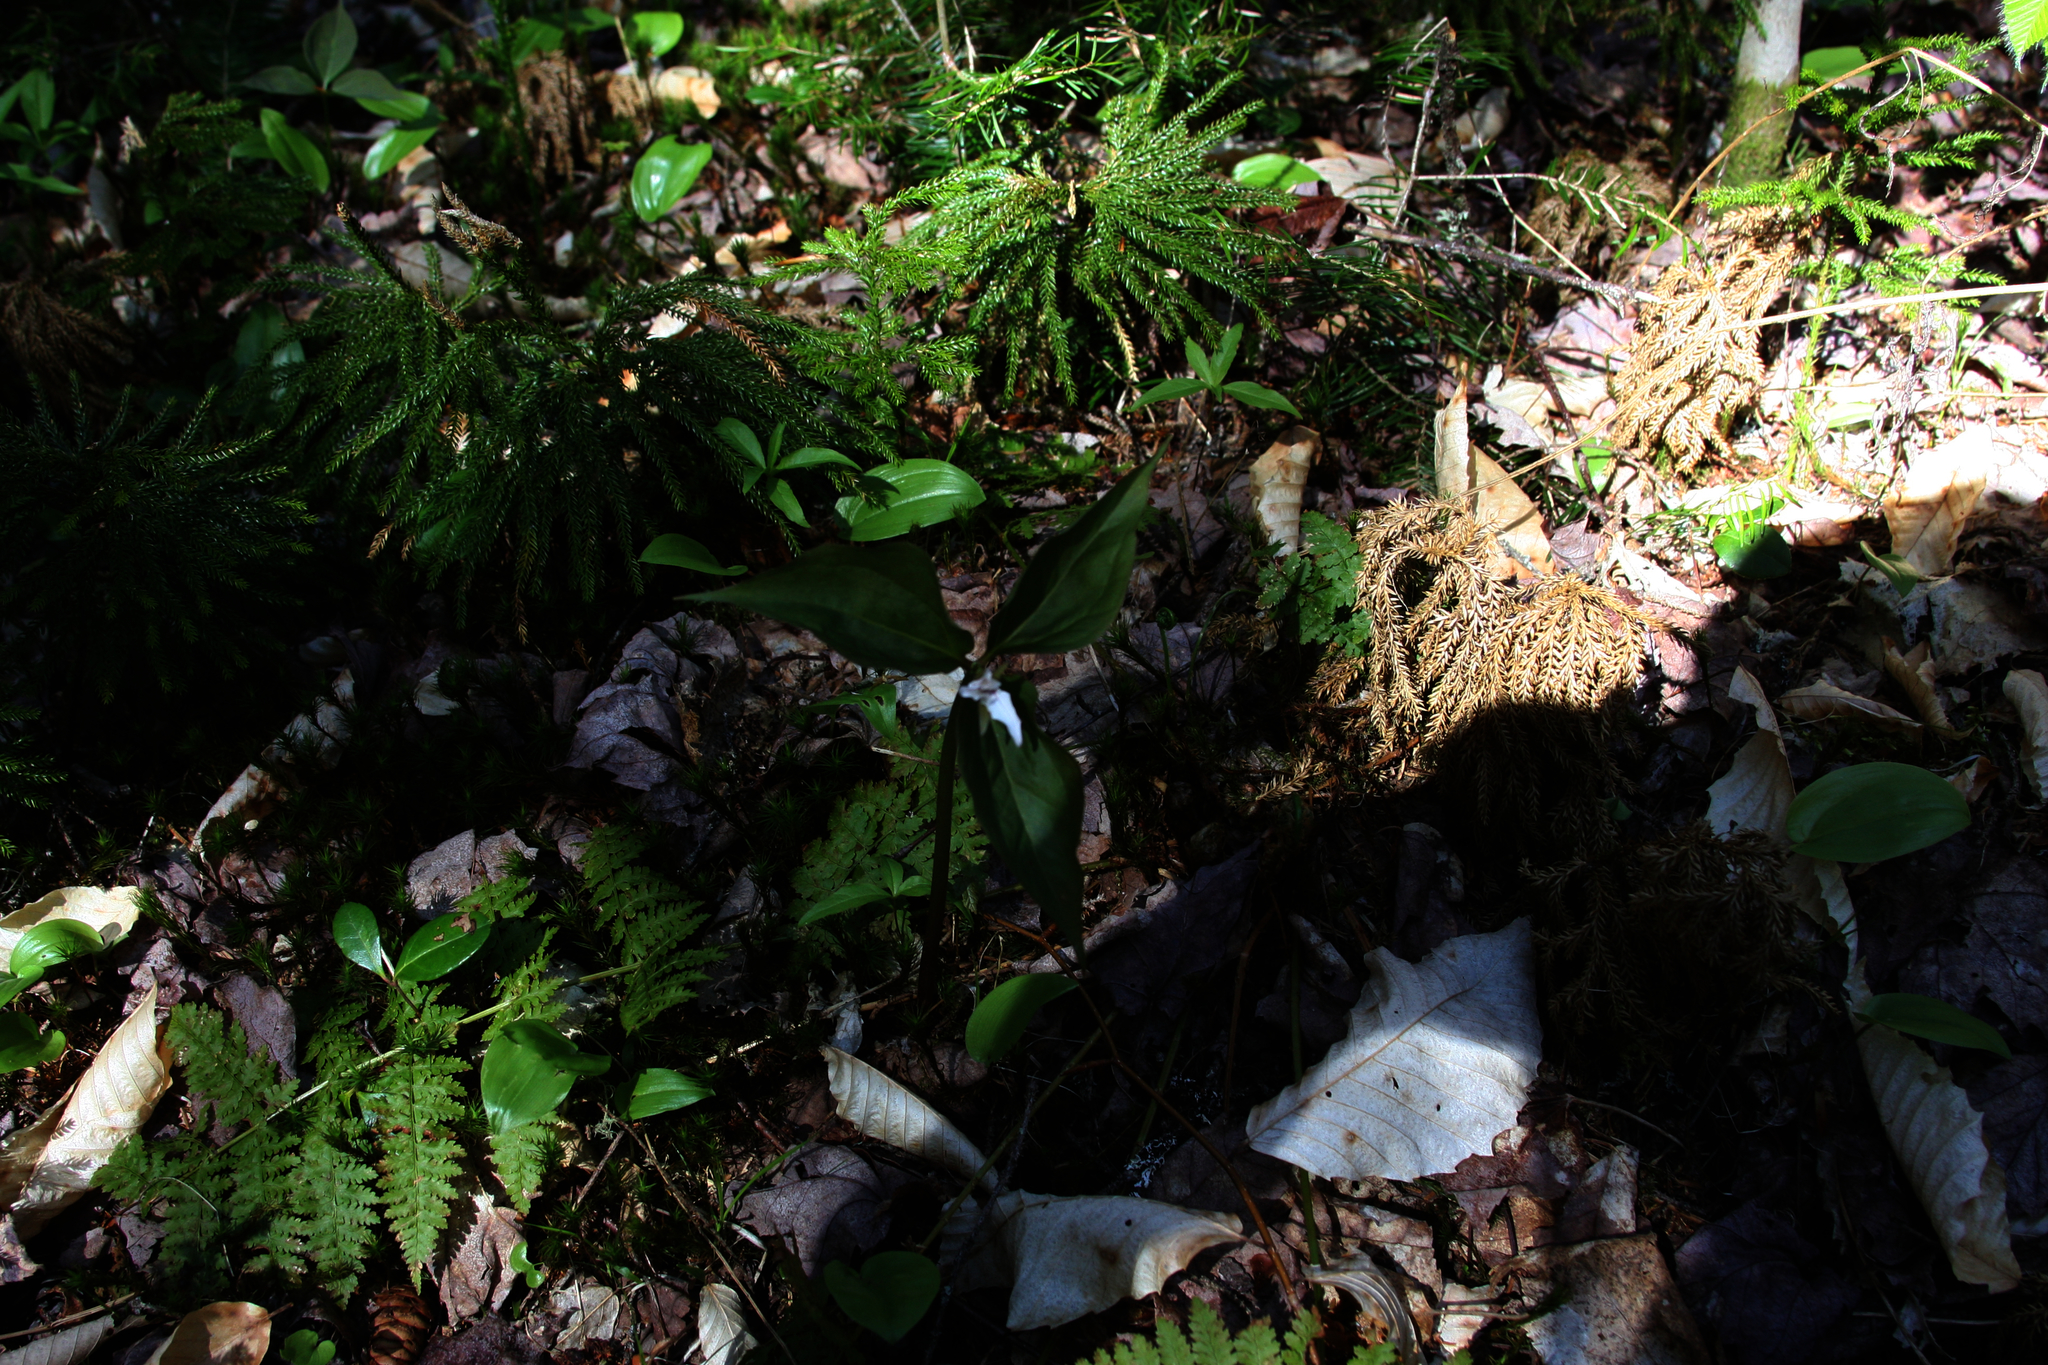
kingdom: Plantae
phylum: Tracheophyta
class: Liliopsida
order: Liliales
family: Melanthiaceae
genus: Trillium
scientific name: Trillium undulatum
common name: Paint trillium
